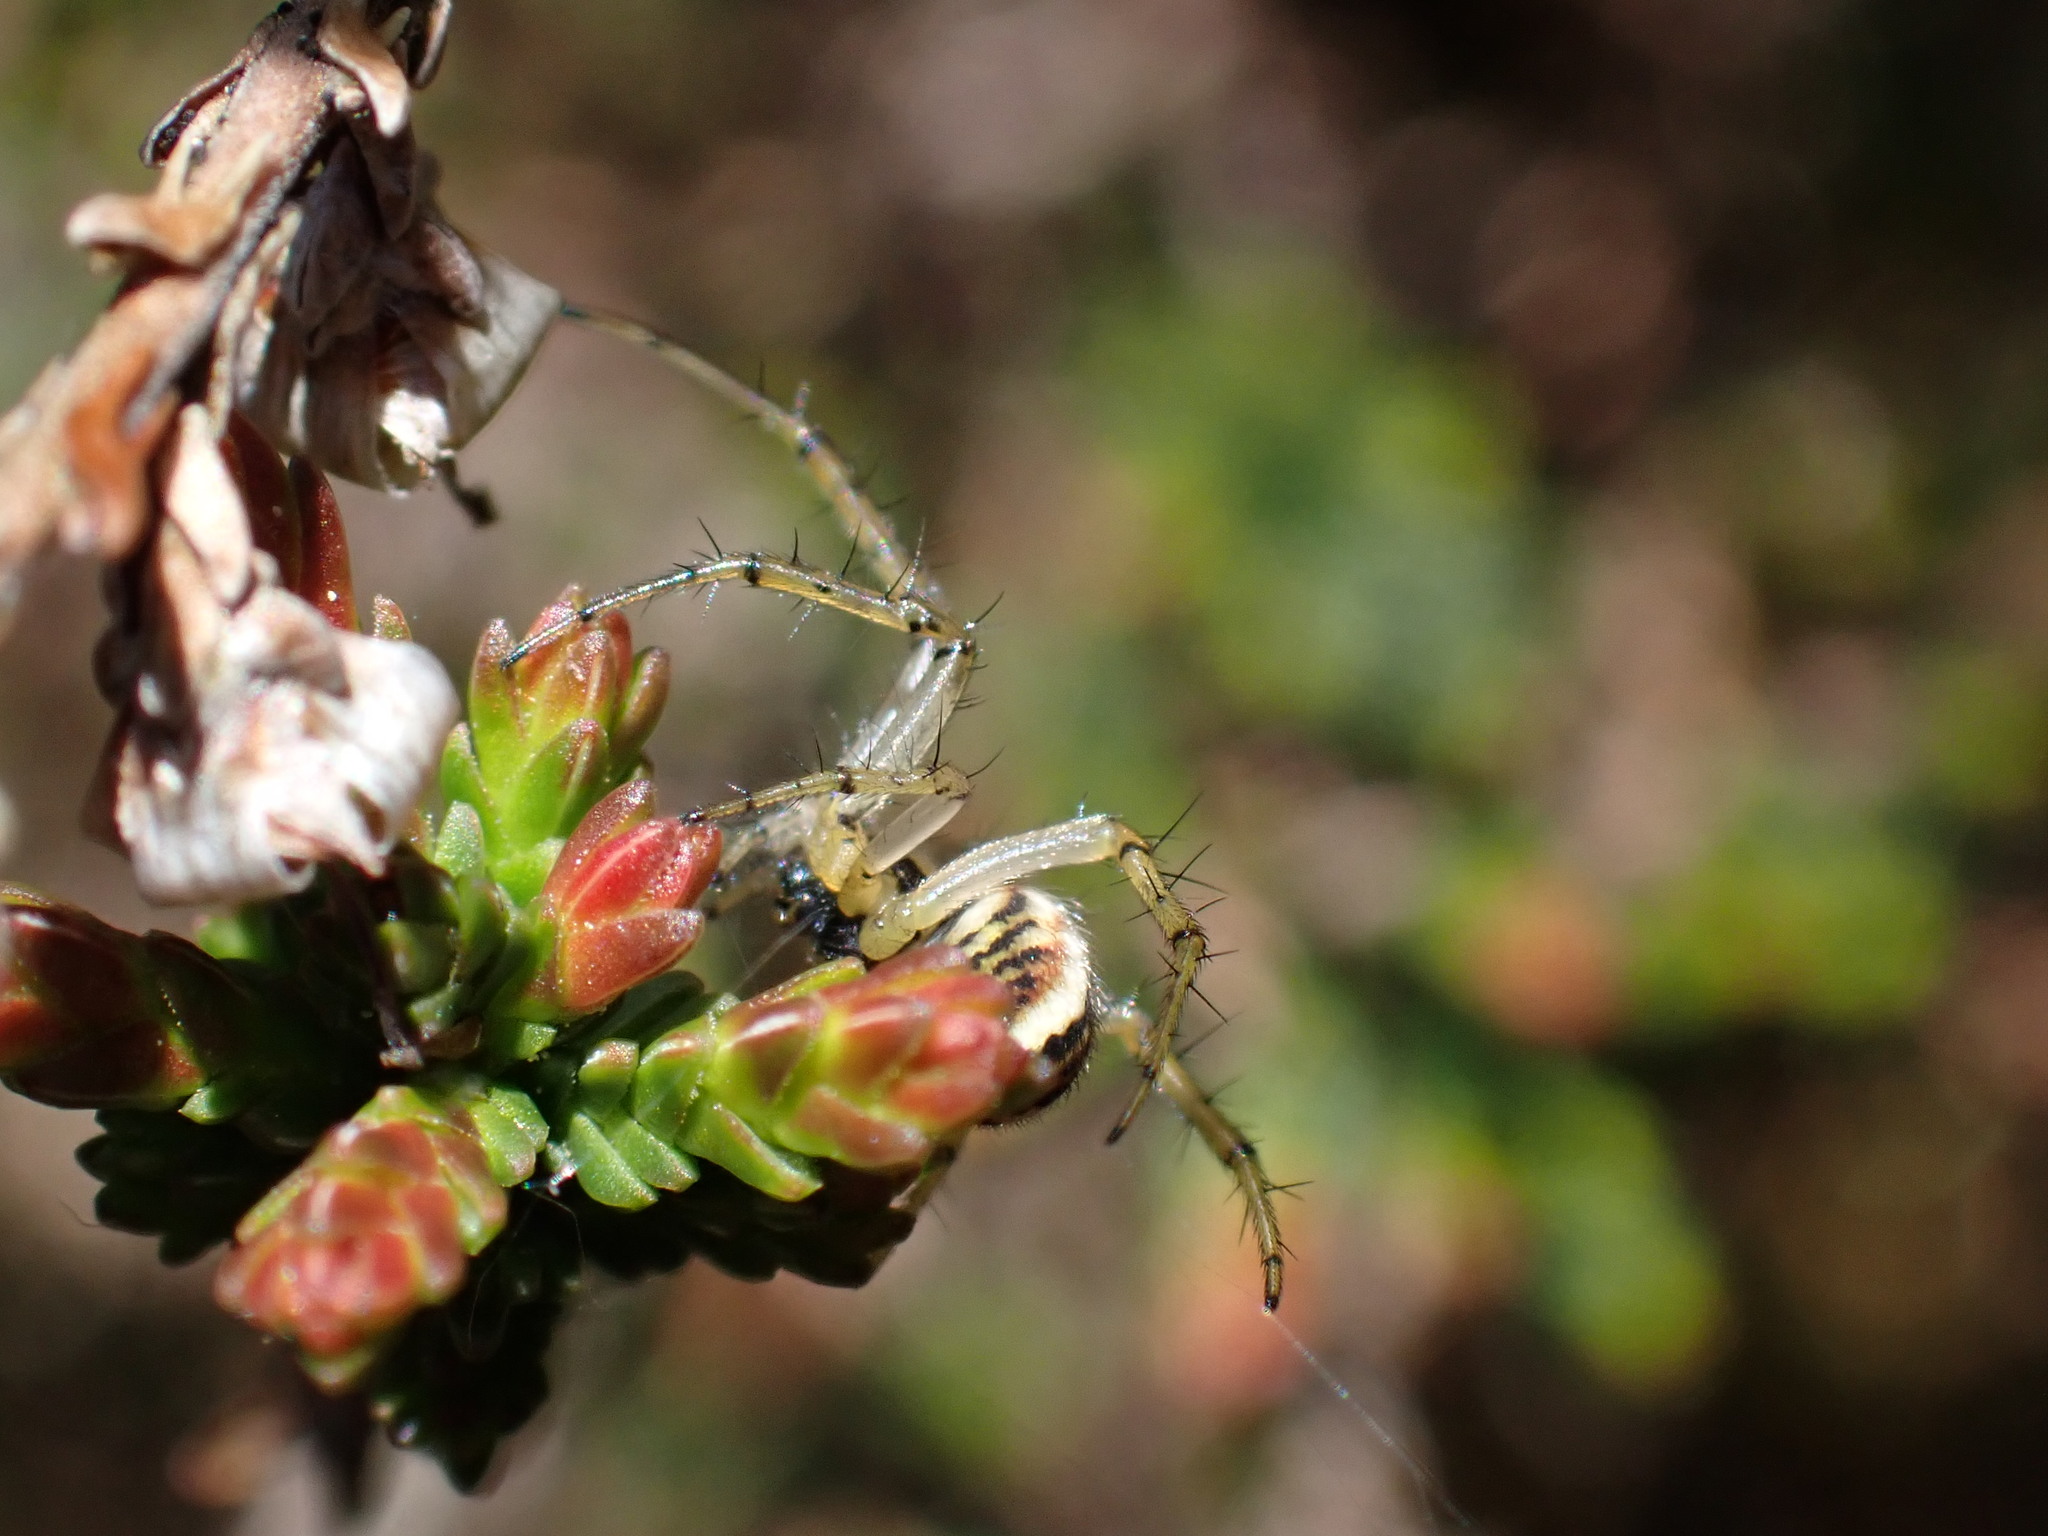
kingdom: Animalia
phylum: Arthropoda
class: Arachnida
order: Araneae
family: Araneidae
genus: Mangora
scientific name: Mangora acalypha
